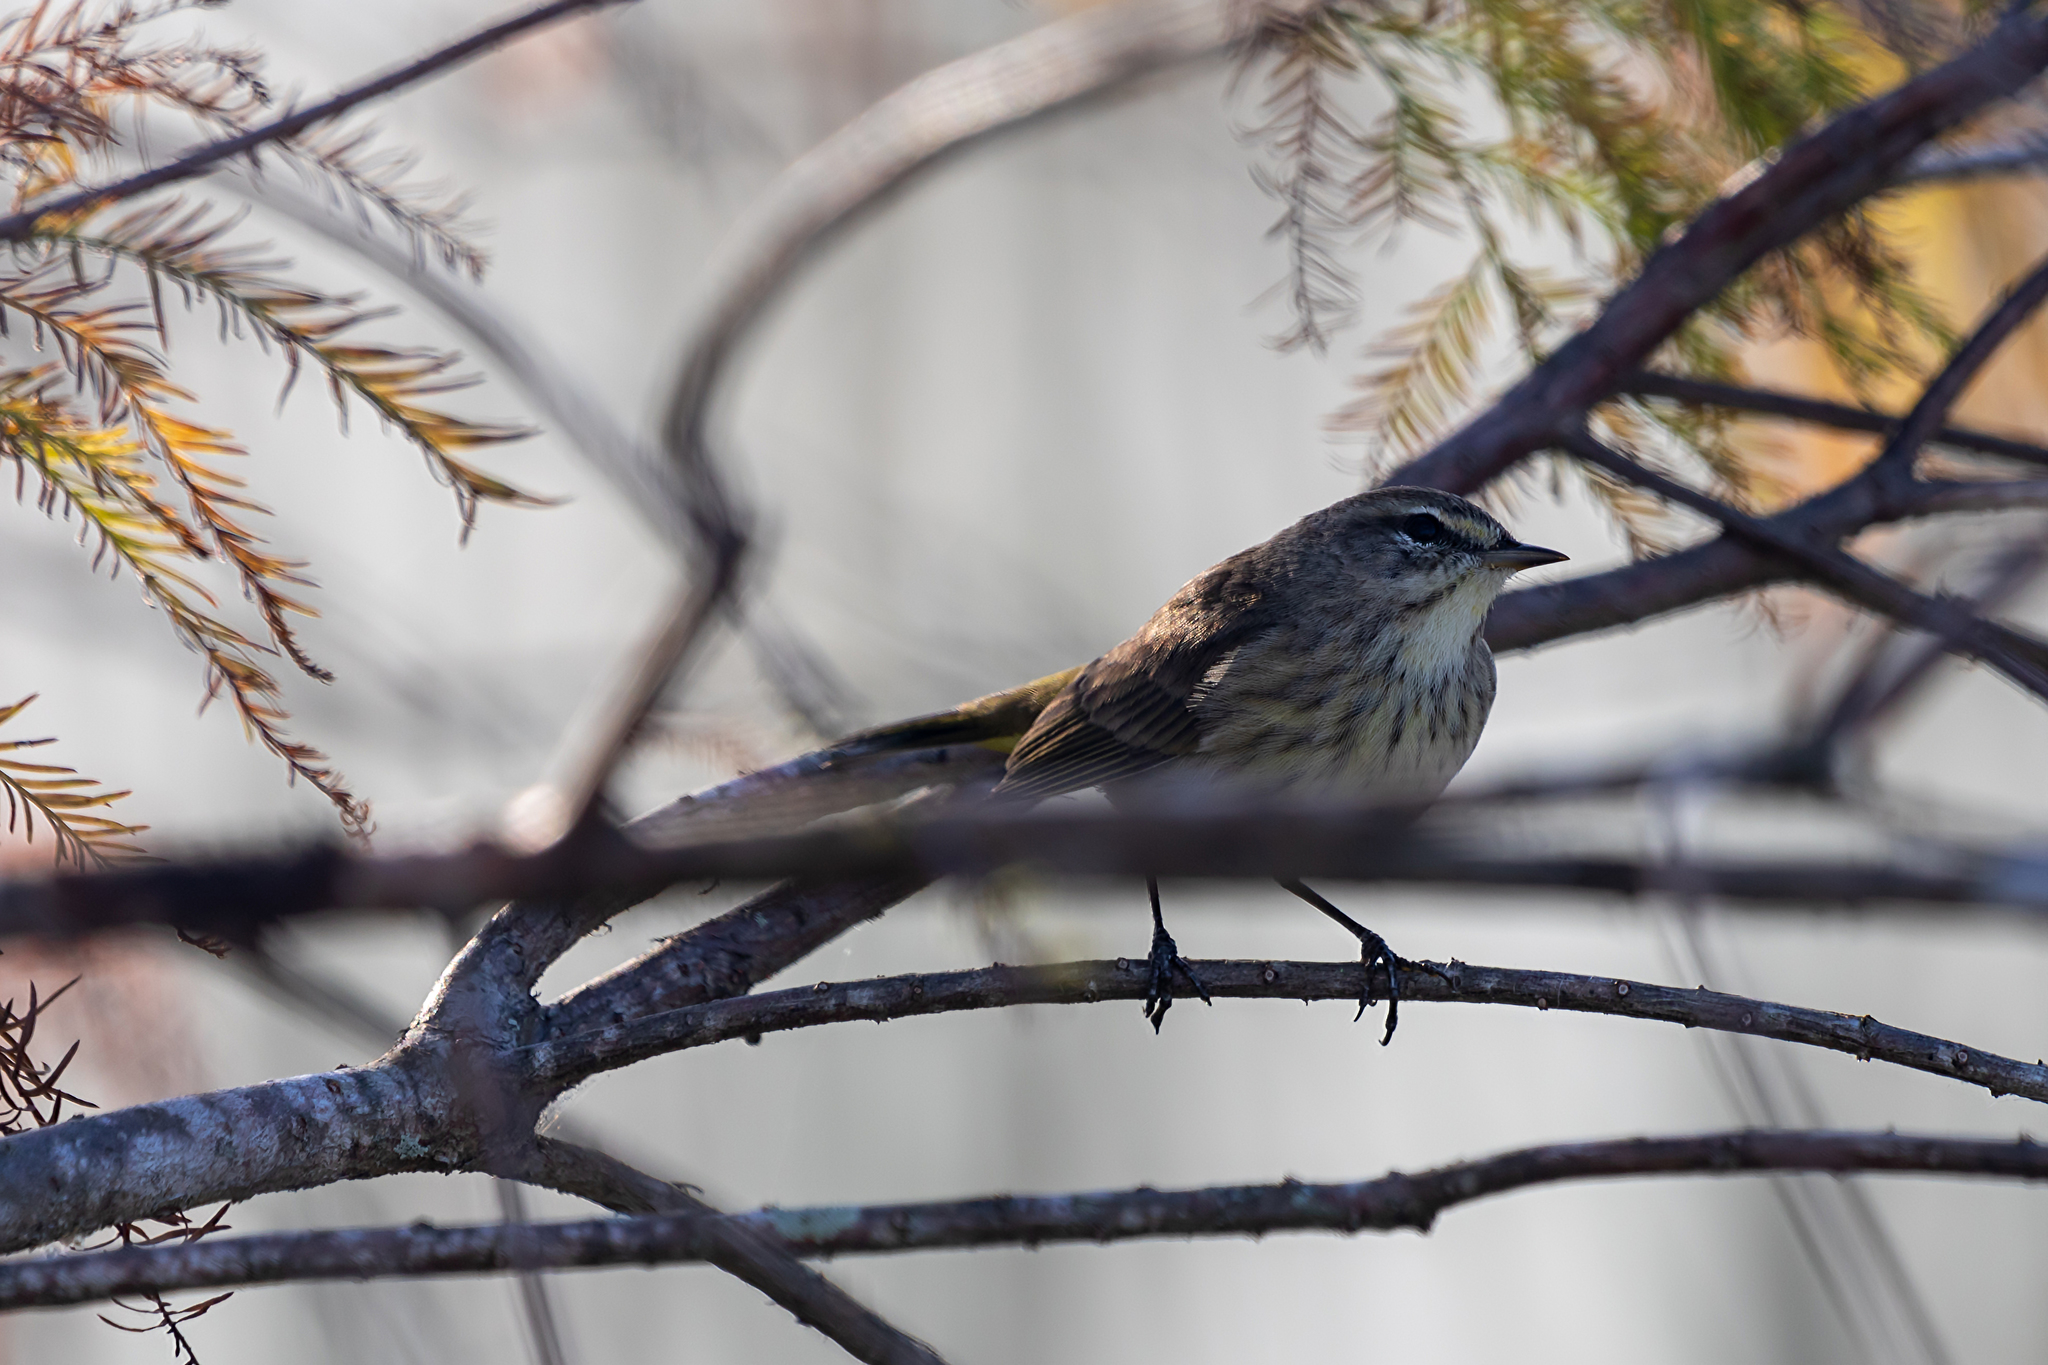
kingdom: Animalia
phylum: Chordata
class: Aves
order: Passeriformes
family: Parulidae
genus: Setophaga
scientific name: Setophaga palmarum
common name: Palm warbler
